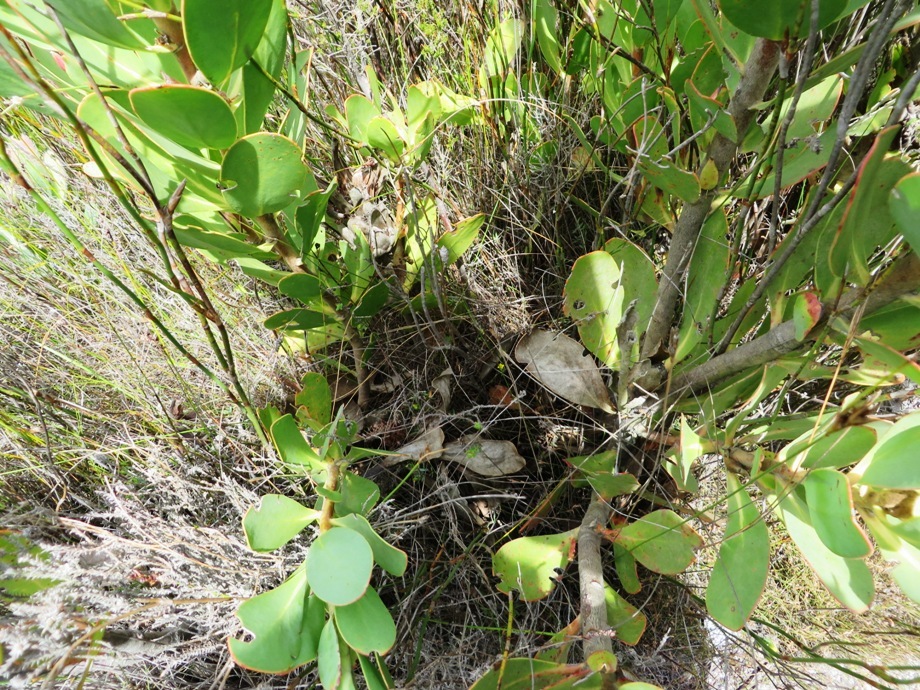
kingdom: Plantae
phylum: Tracheophyta
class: Magnoliopsida
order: Proteales
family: Proteaceae
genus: Protea
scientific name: Protea stokoei
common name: Pink sugarbush
